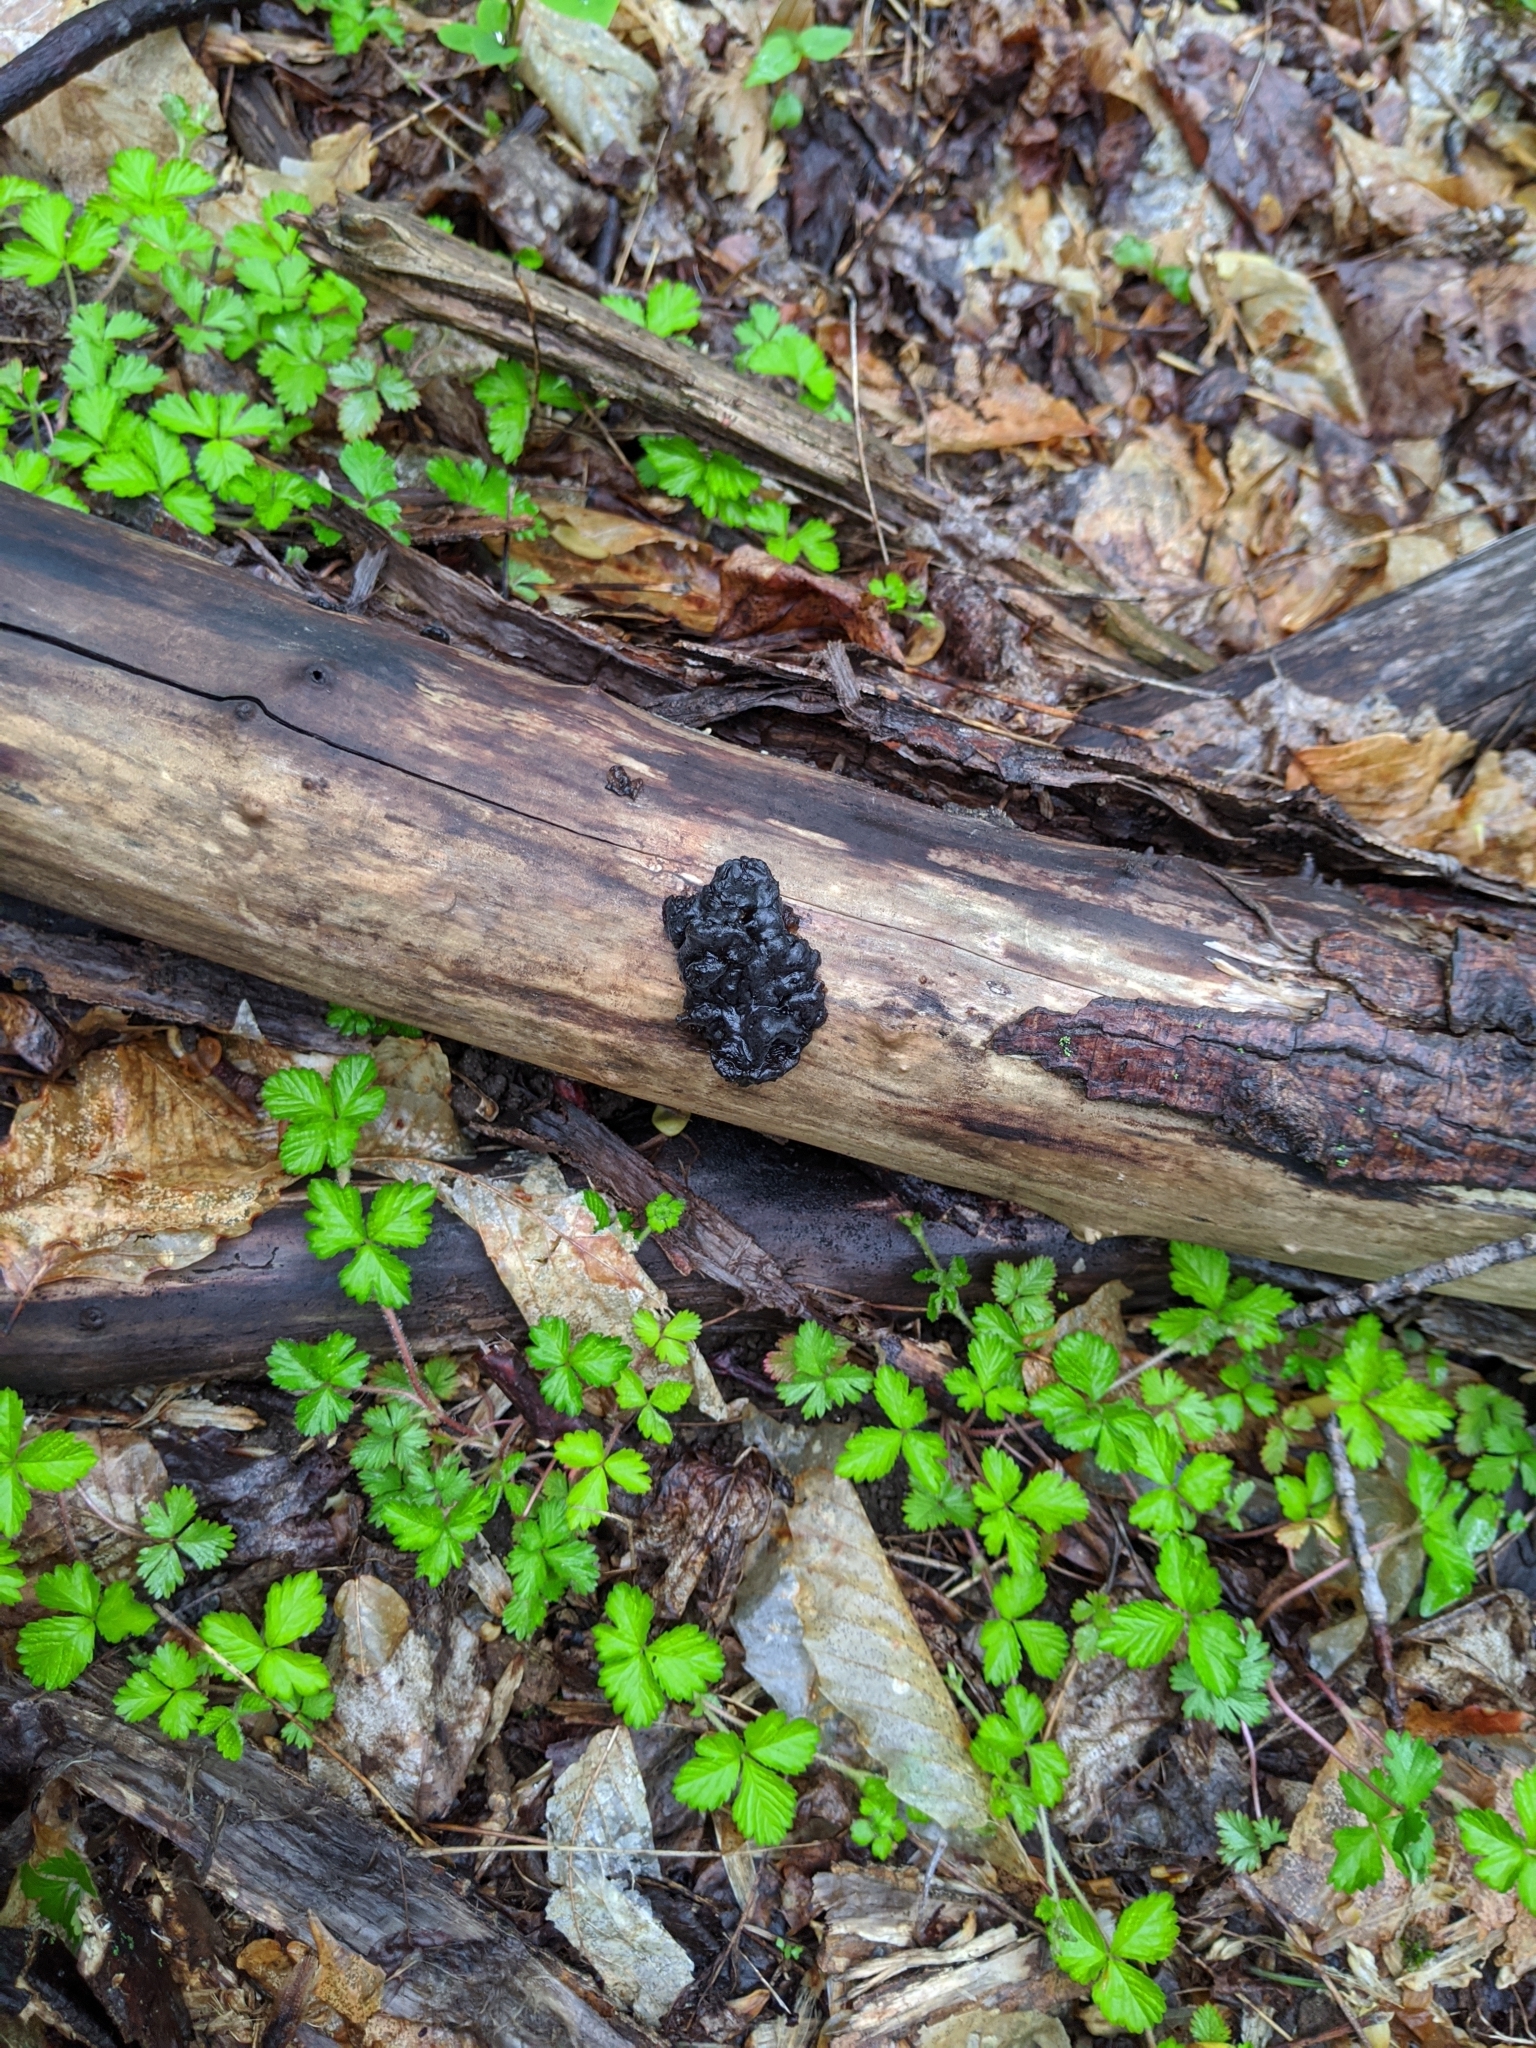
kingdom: Fungi
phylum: Basidiomycota
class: Agaricomycetes
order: Auriculariales
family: Auriculariaceae
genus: Exidia
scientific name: Exidia glandulosa
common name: Witches' butter
